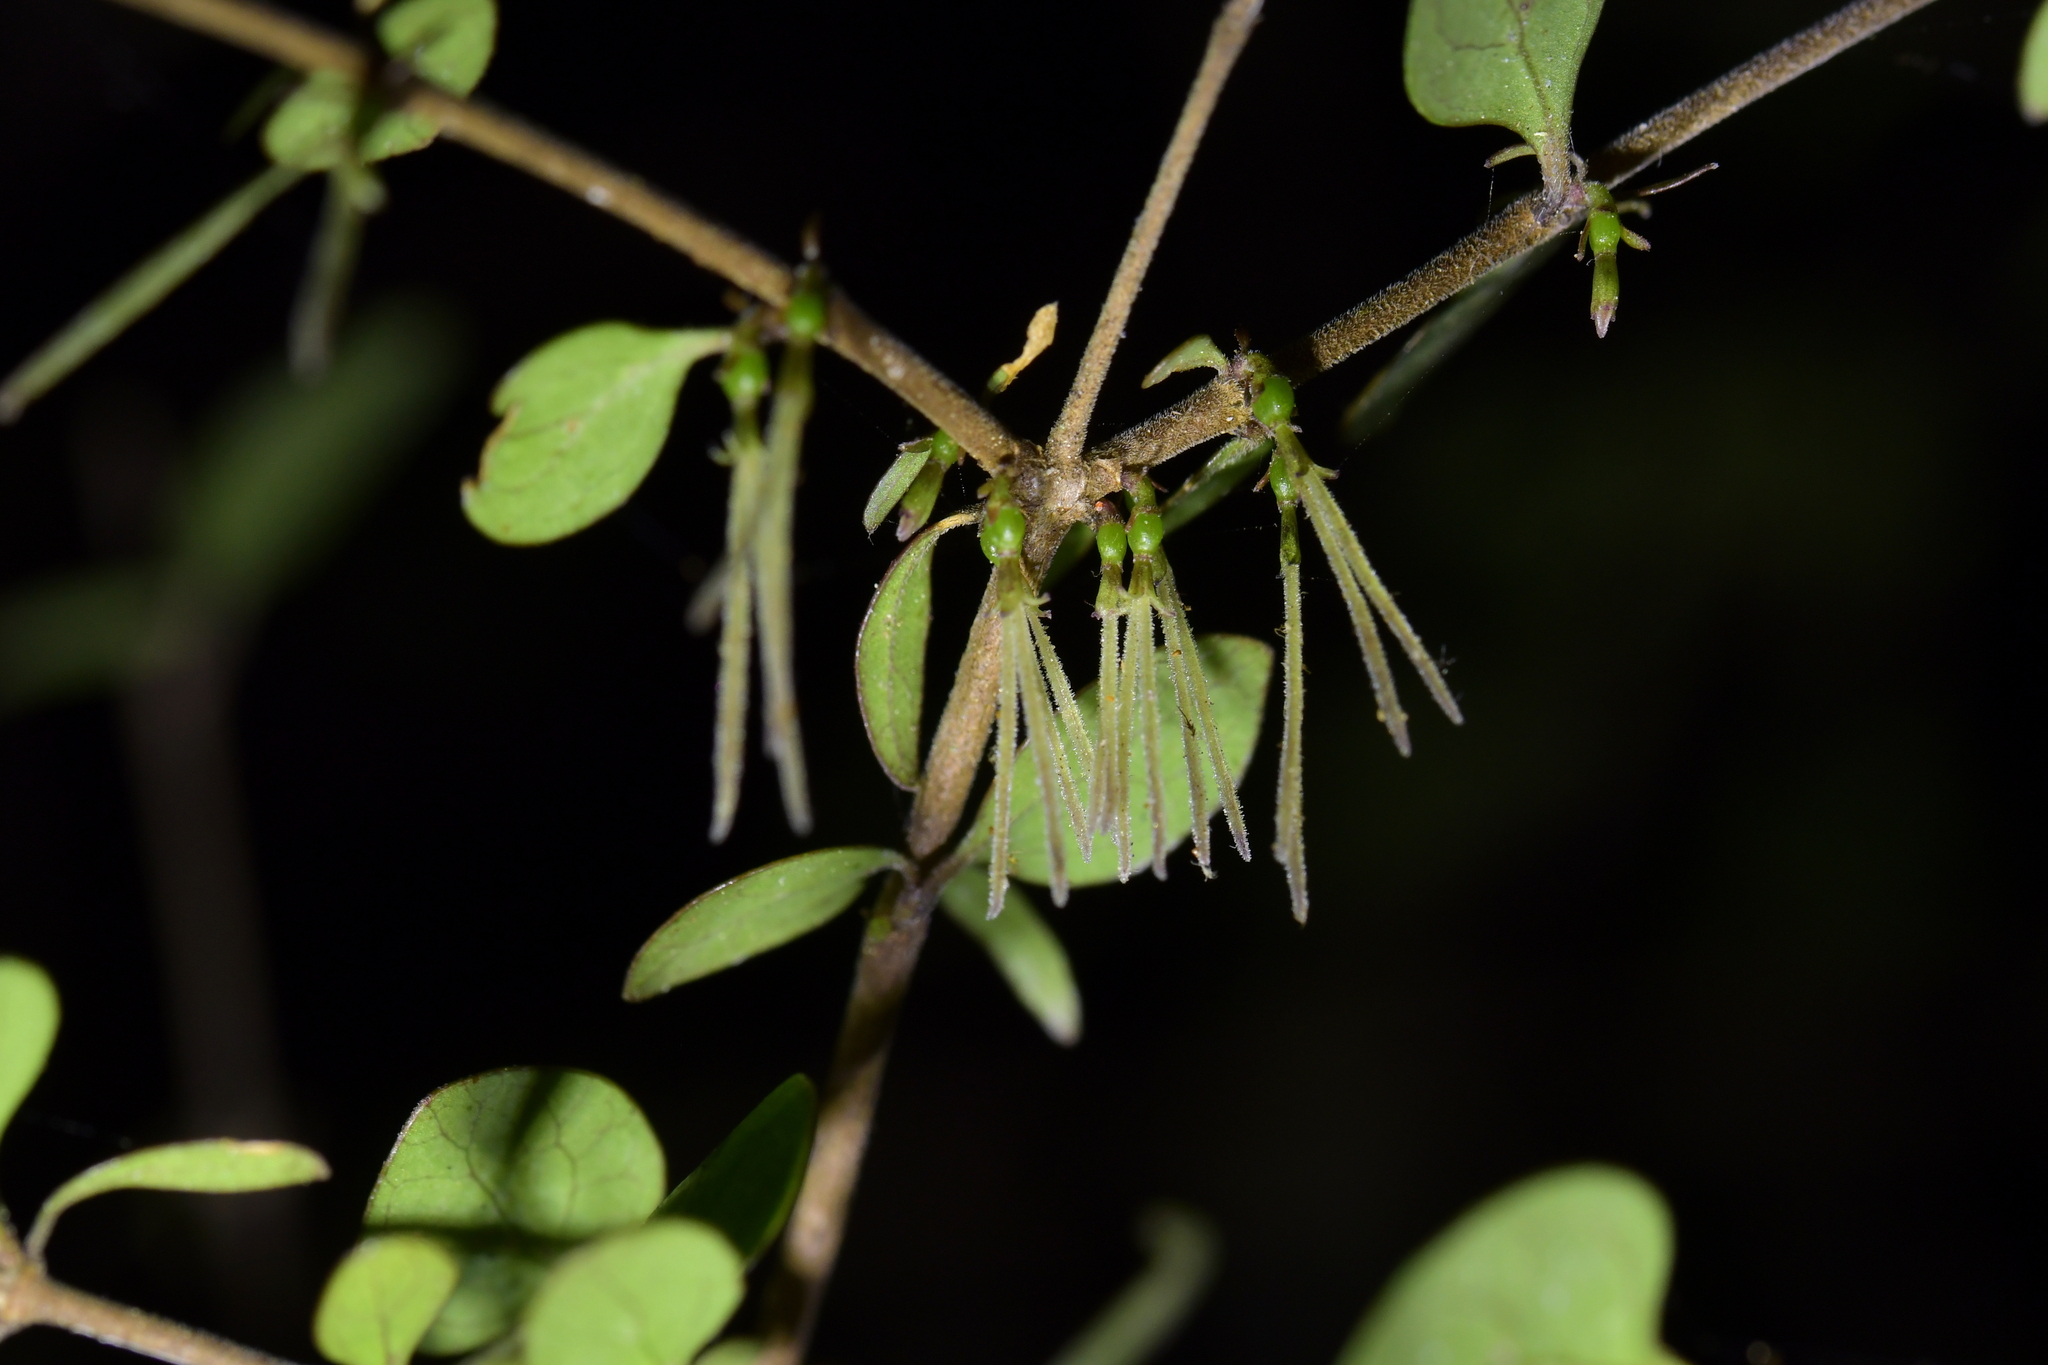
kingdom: Plantae
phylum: Tracheophyta
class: Magnoliopsida
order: Gentianales
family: Rubiaceae
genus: Coprosma
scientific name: Coprosma rhamnoides
